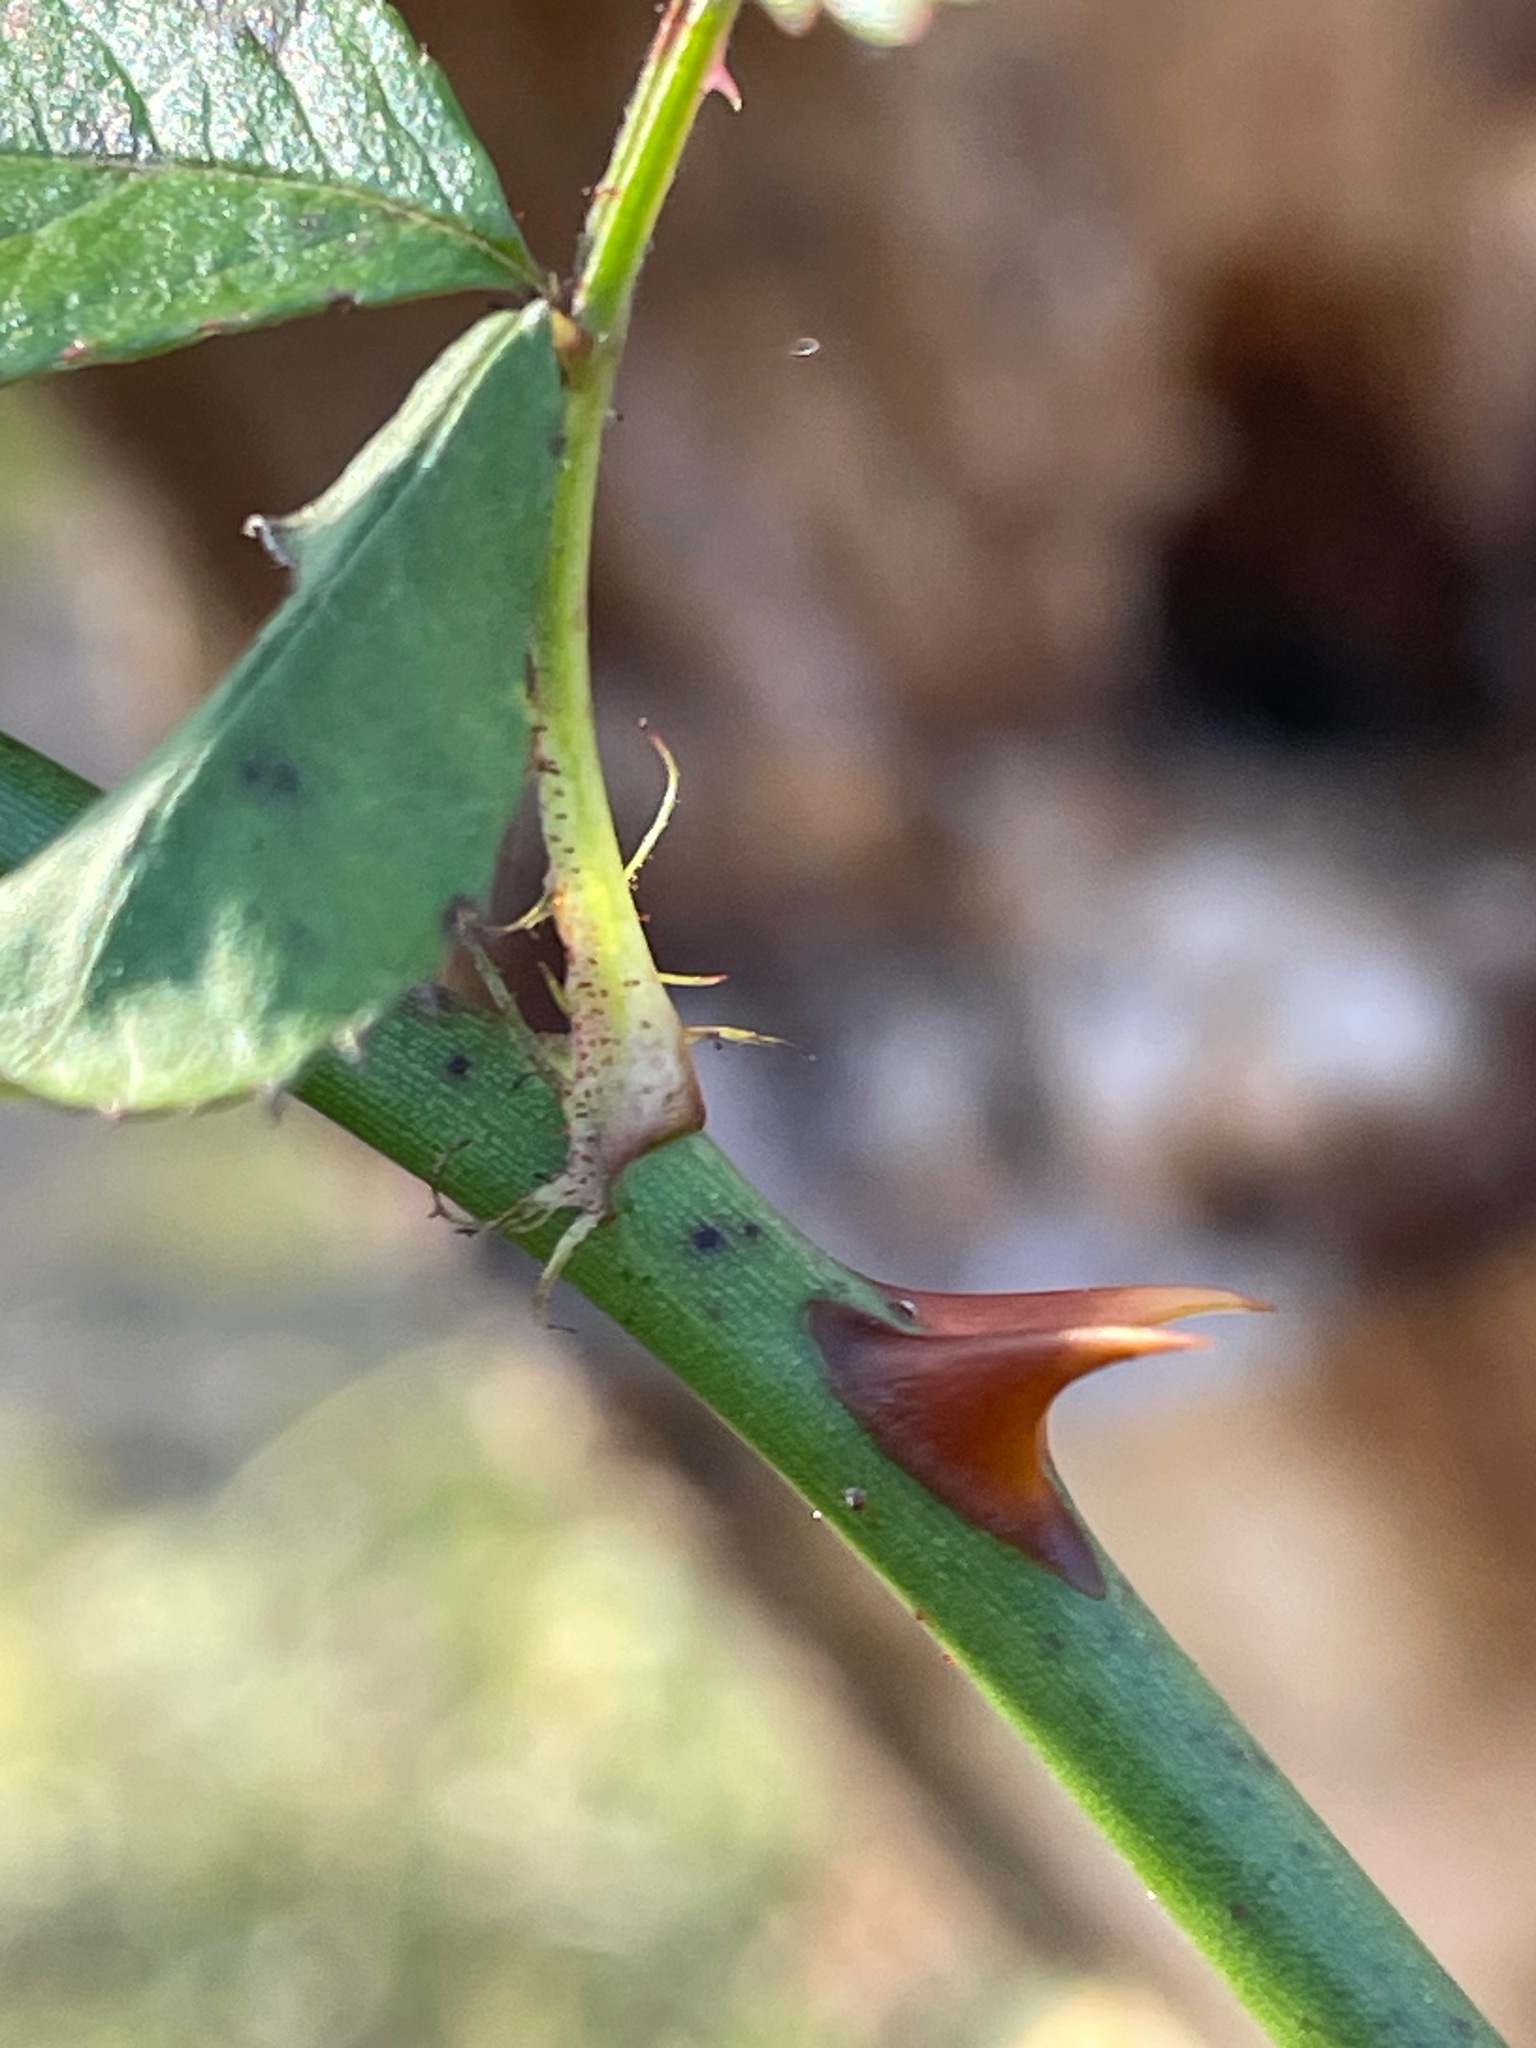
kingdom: Plantae
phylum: Tracheophyta
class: Magnoliopsida
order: Rosales
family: Rosaceae
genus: Rosa
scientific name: Rosa multiflora
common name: Multiflora rose
